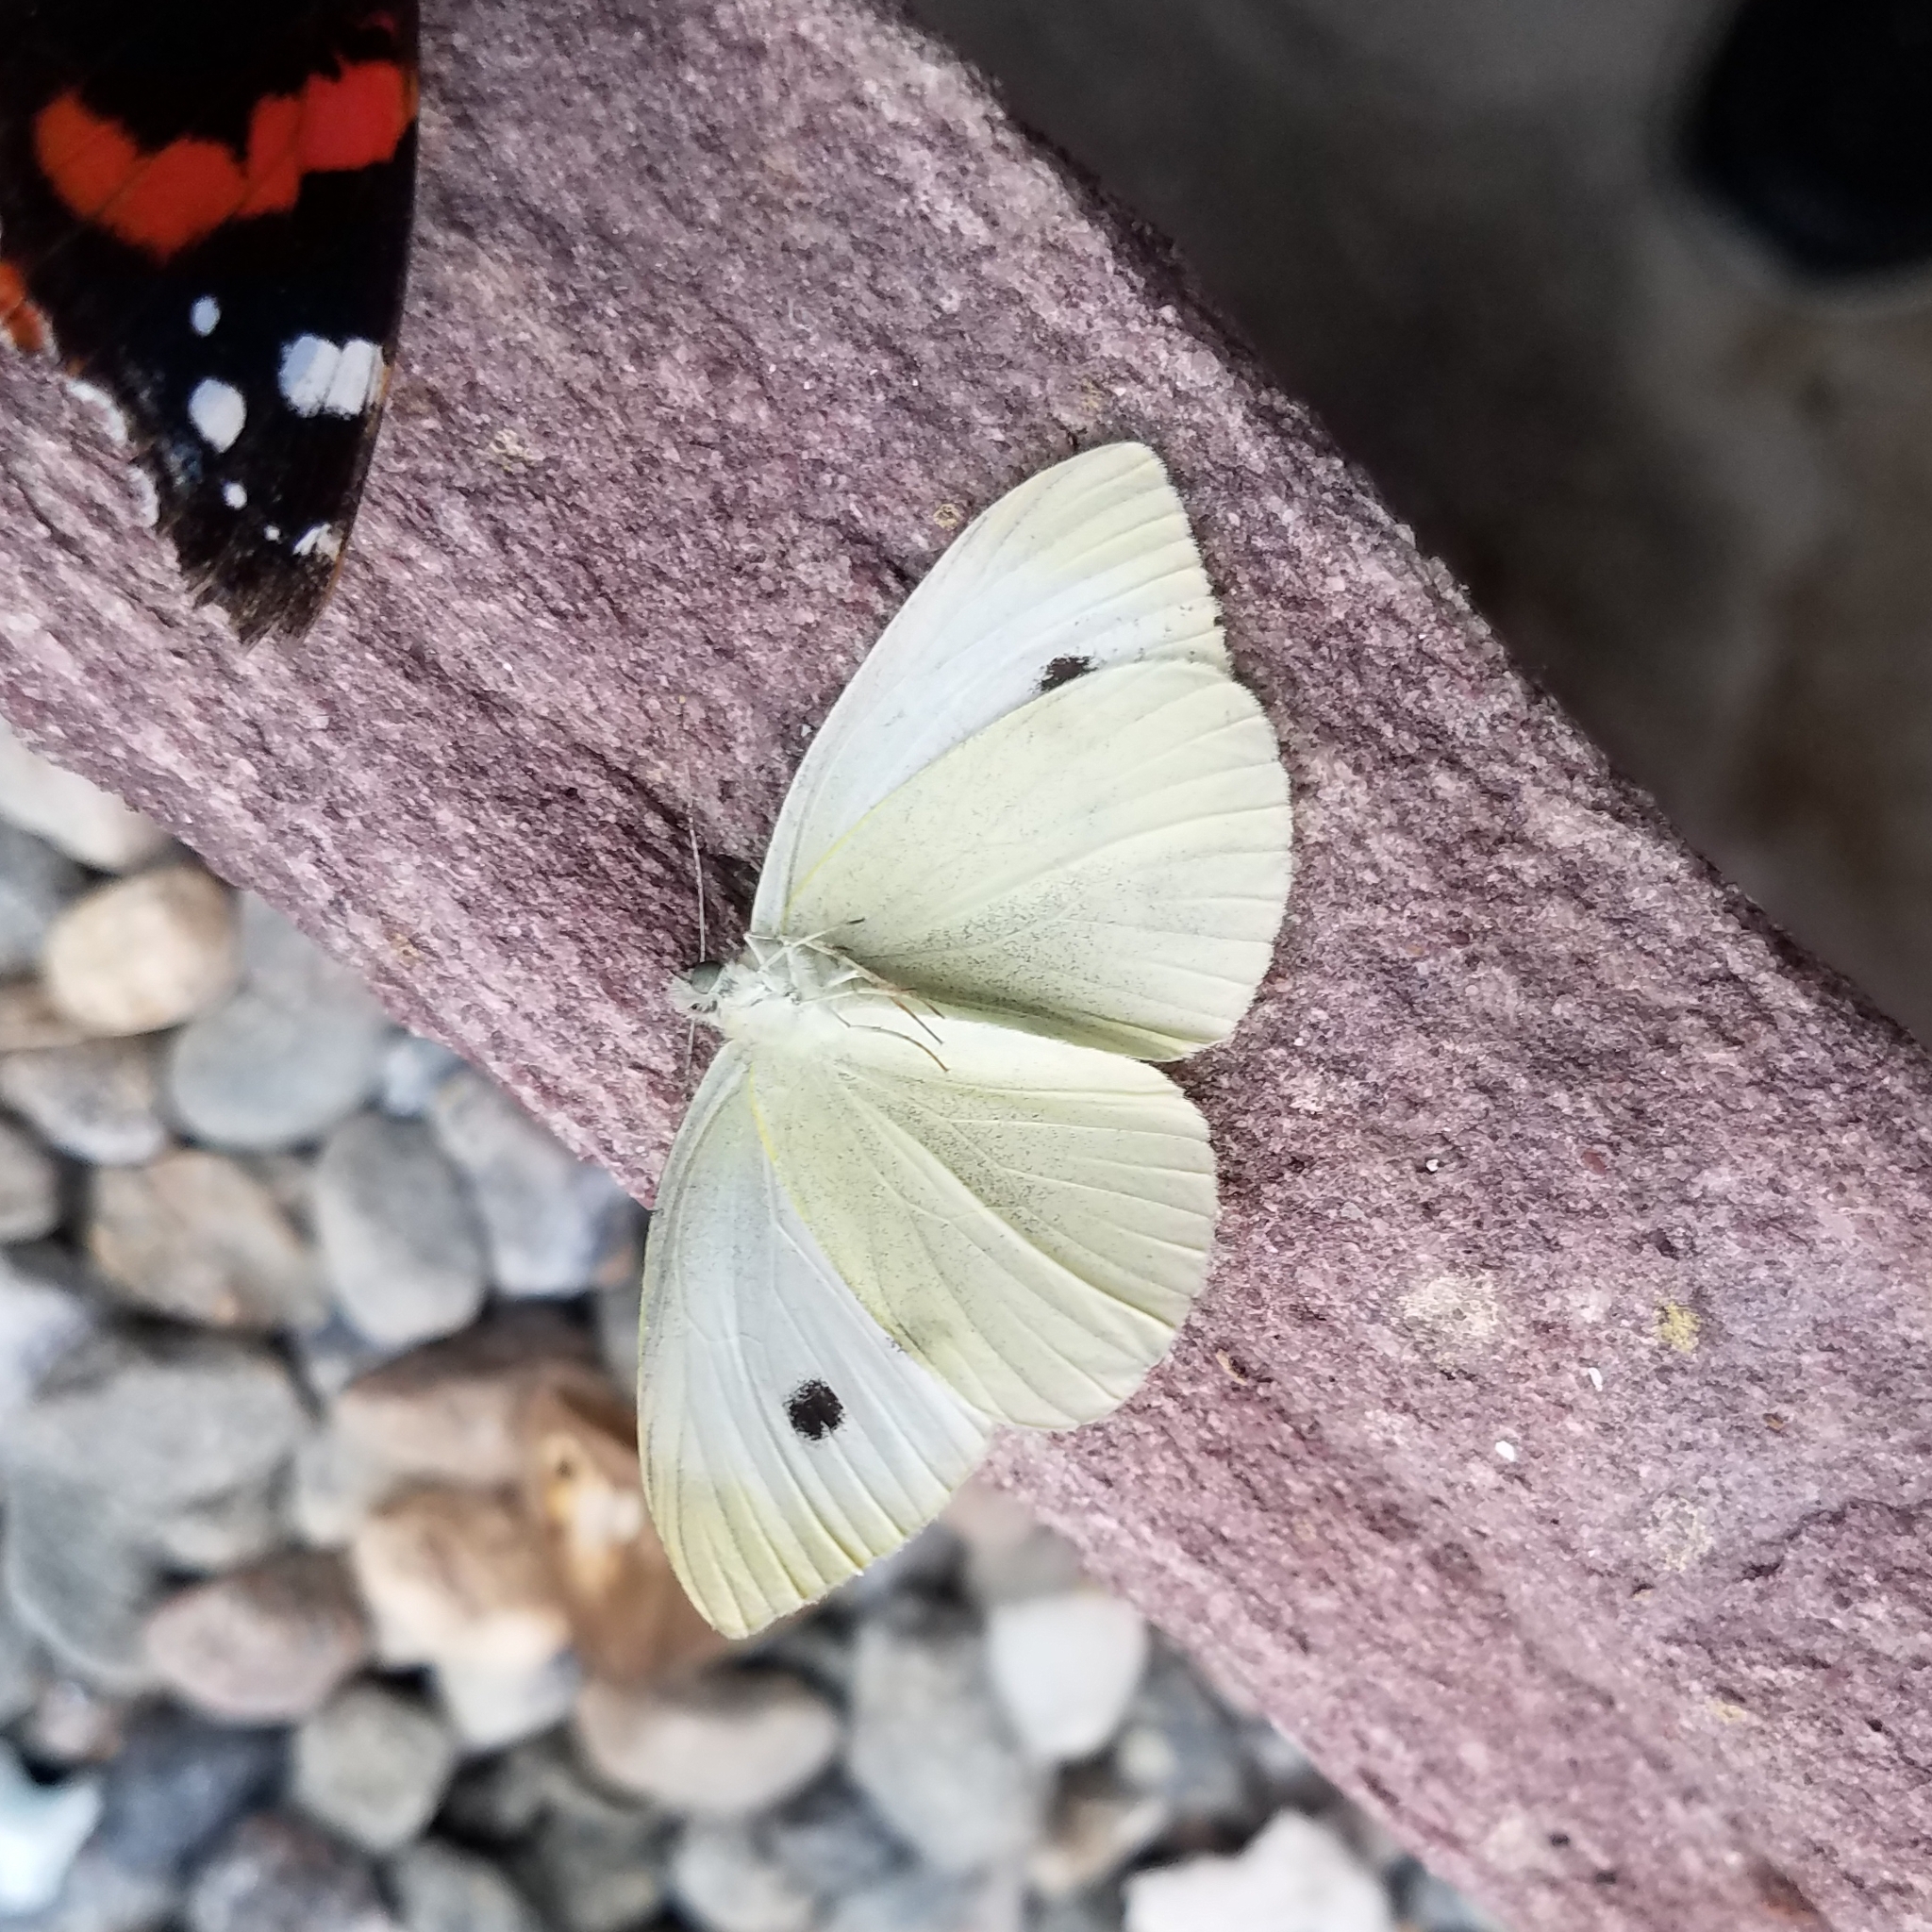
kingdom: Animalia
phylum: Arthropoda
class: Insecta
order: Lepidoptera
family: Pieridae
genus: Pieris
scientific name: Pieris rapae
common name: Small white
